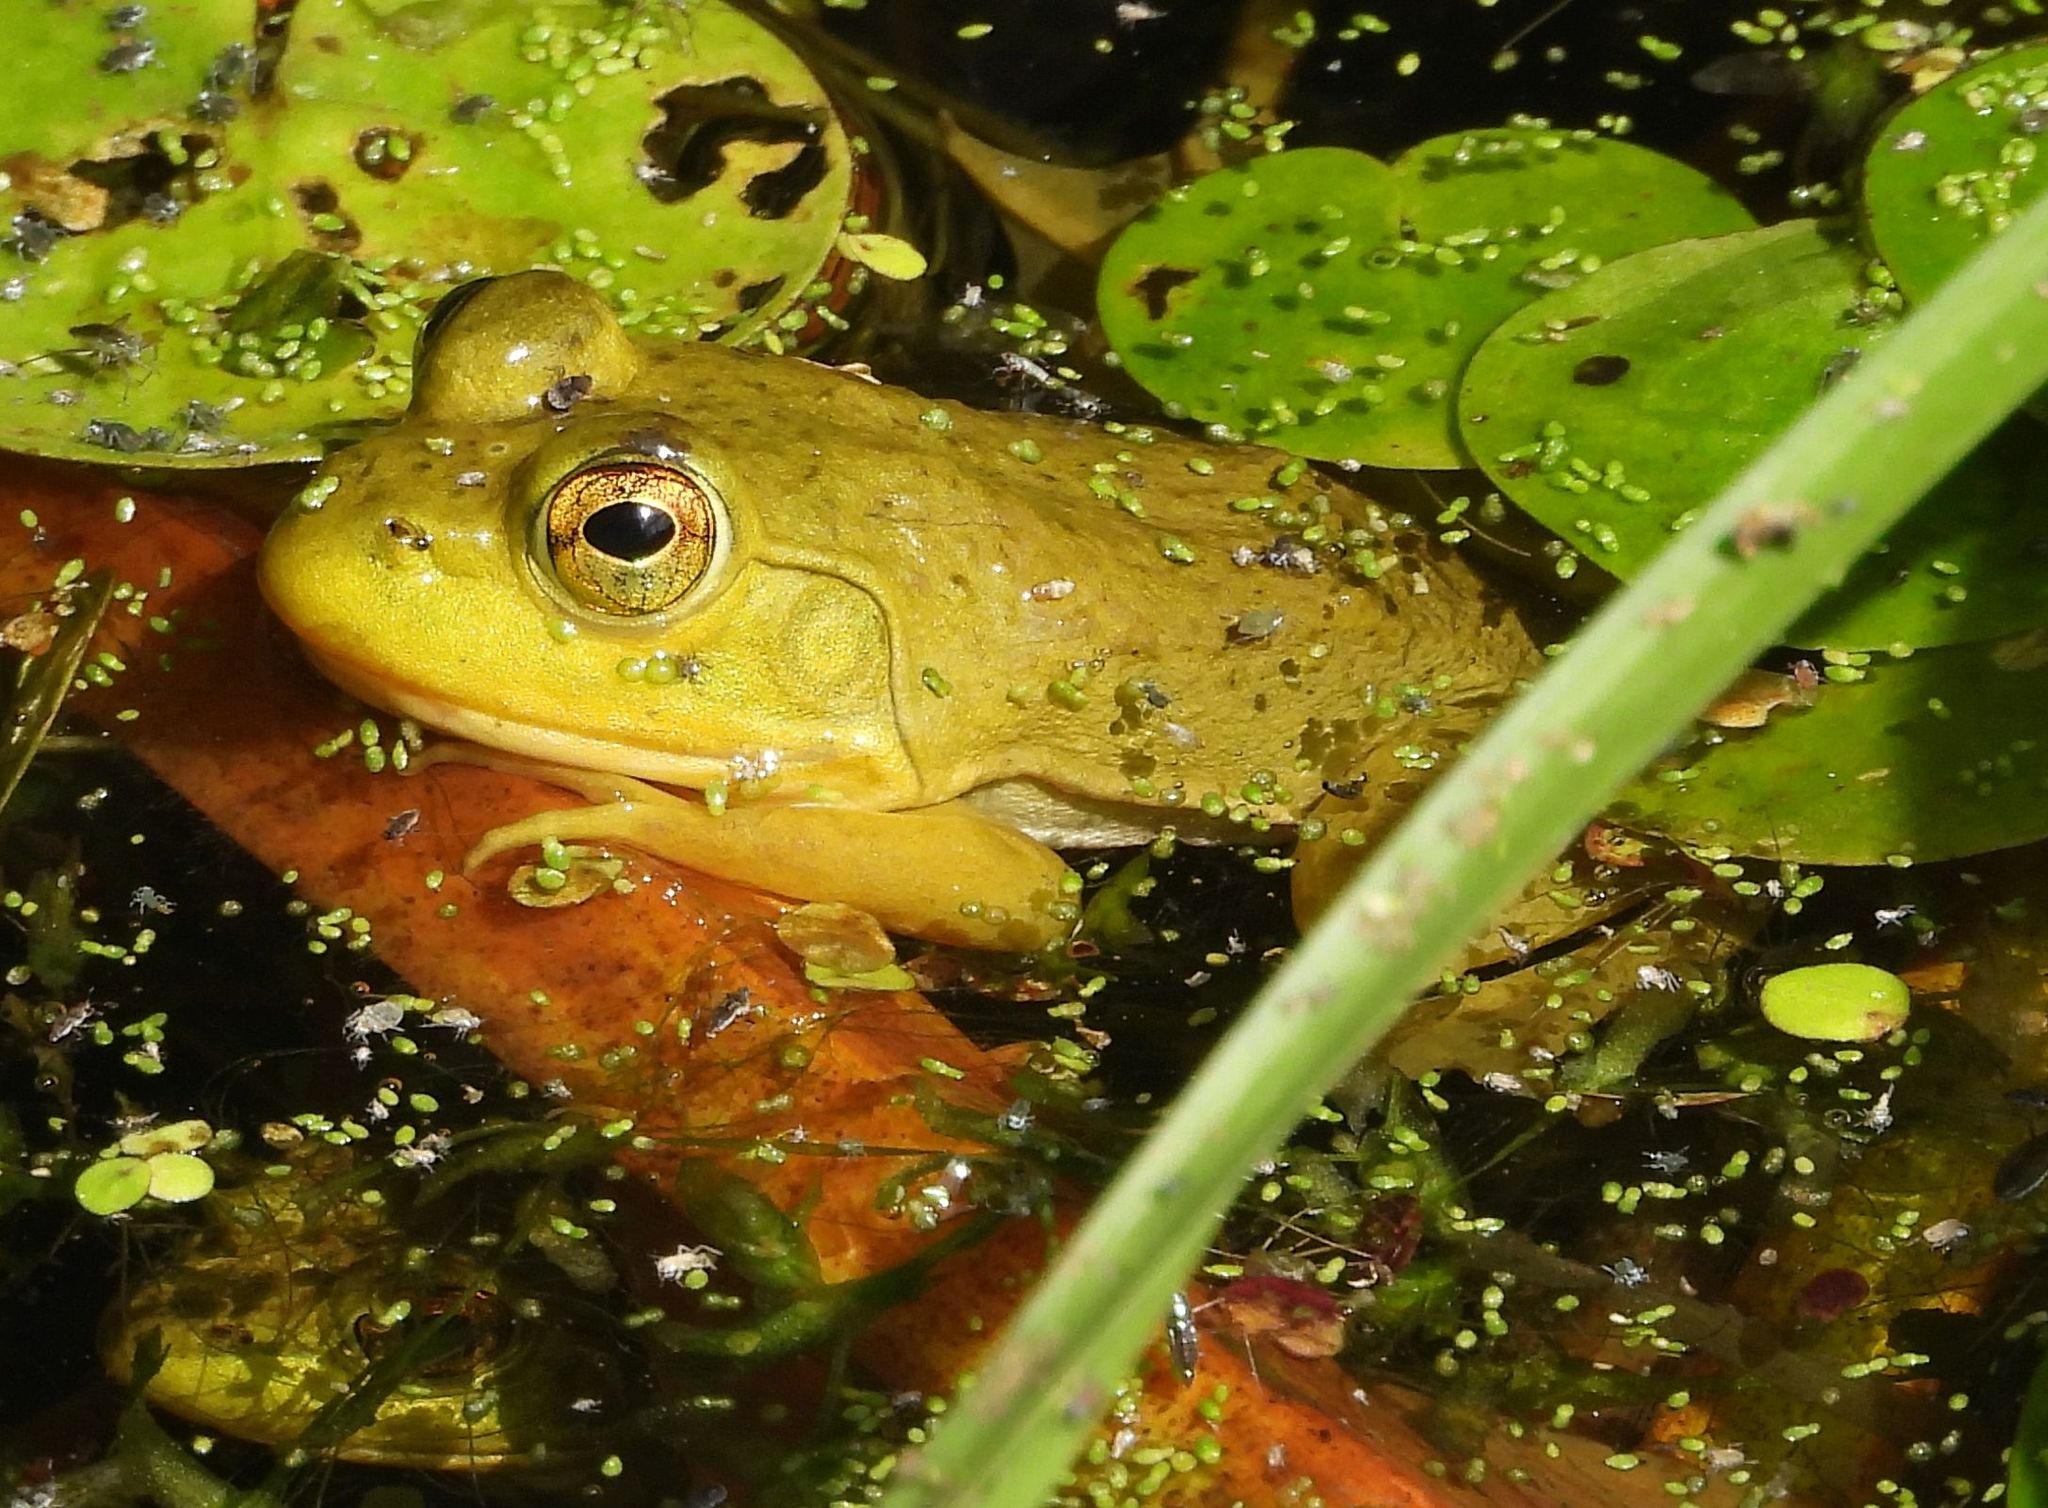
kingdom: Animalia
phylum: Chordata
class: Amphibia
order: Anura
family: Ranidae
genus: Lithobates
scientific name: Lithobates catesbeianus
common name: American bullfrog
